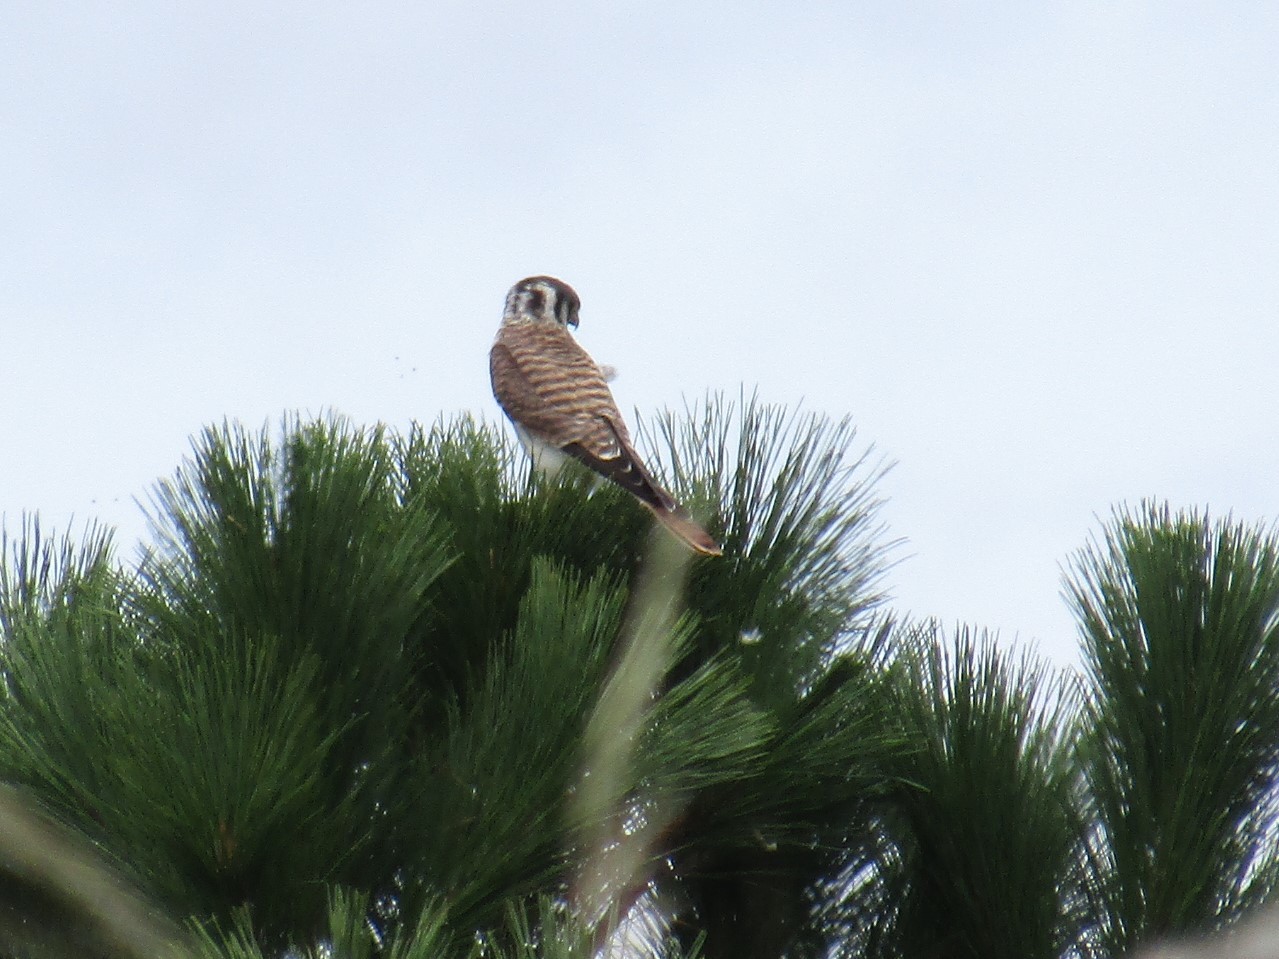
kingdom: Animalia
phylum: Chordata
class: Aves
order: Falconiformes
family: Falconidae
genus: Falco
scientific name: Falco sparverius
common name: American kestrel
